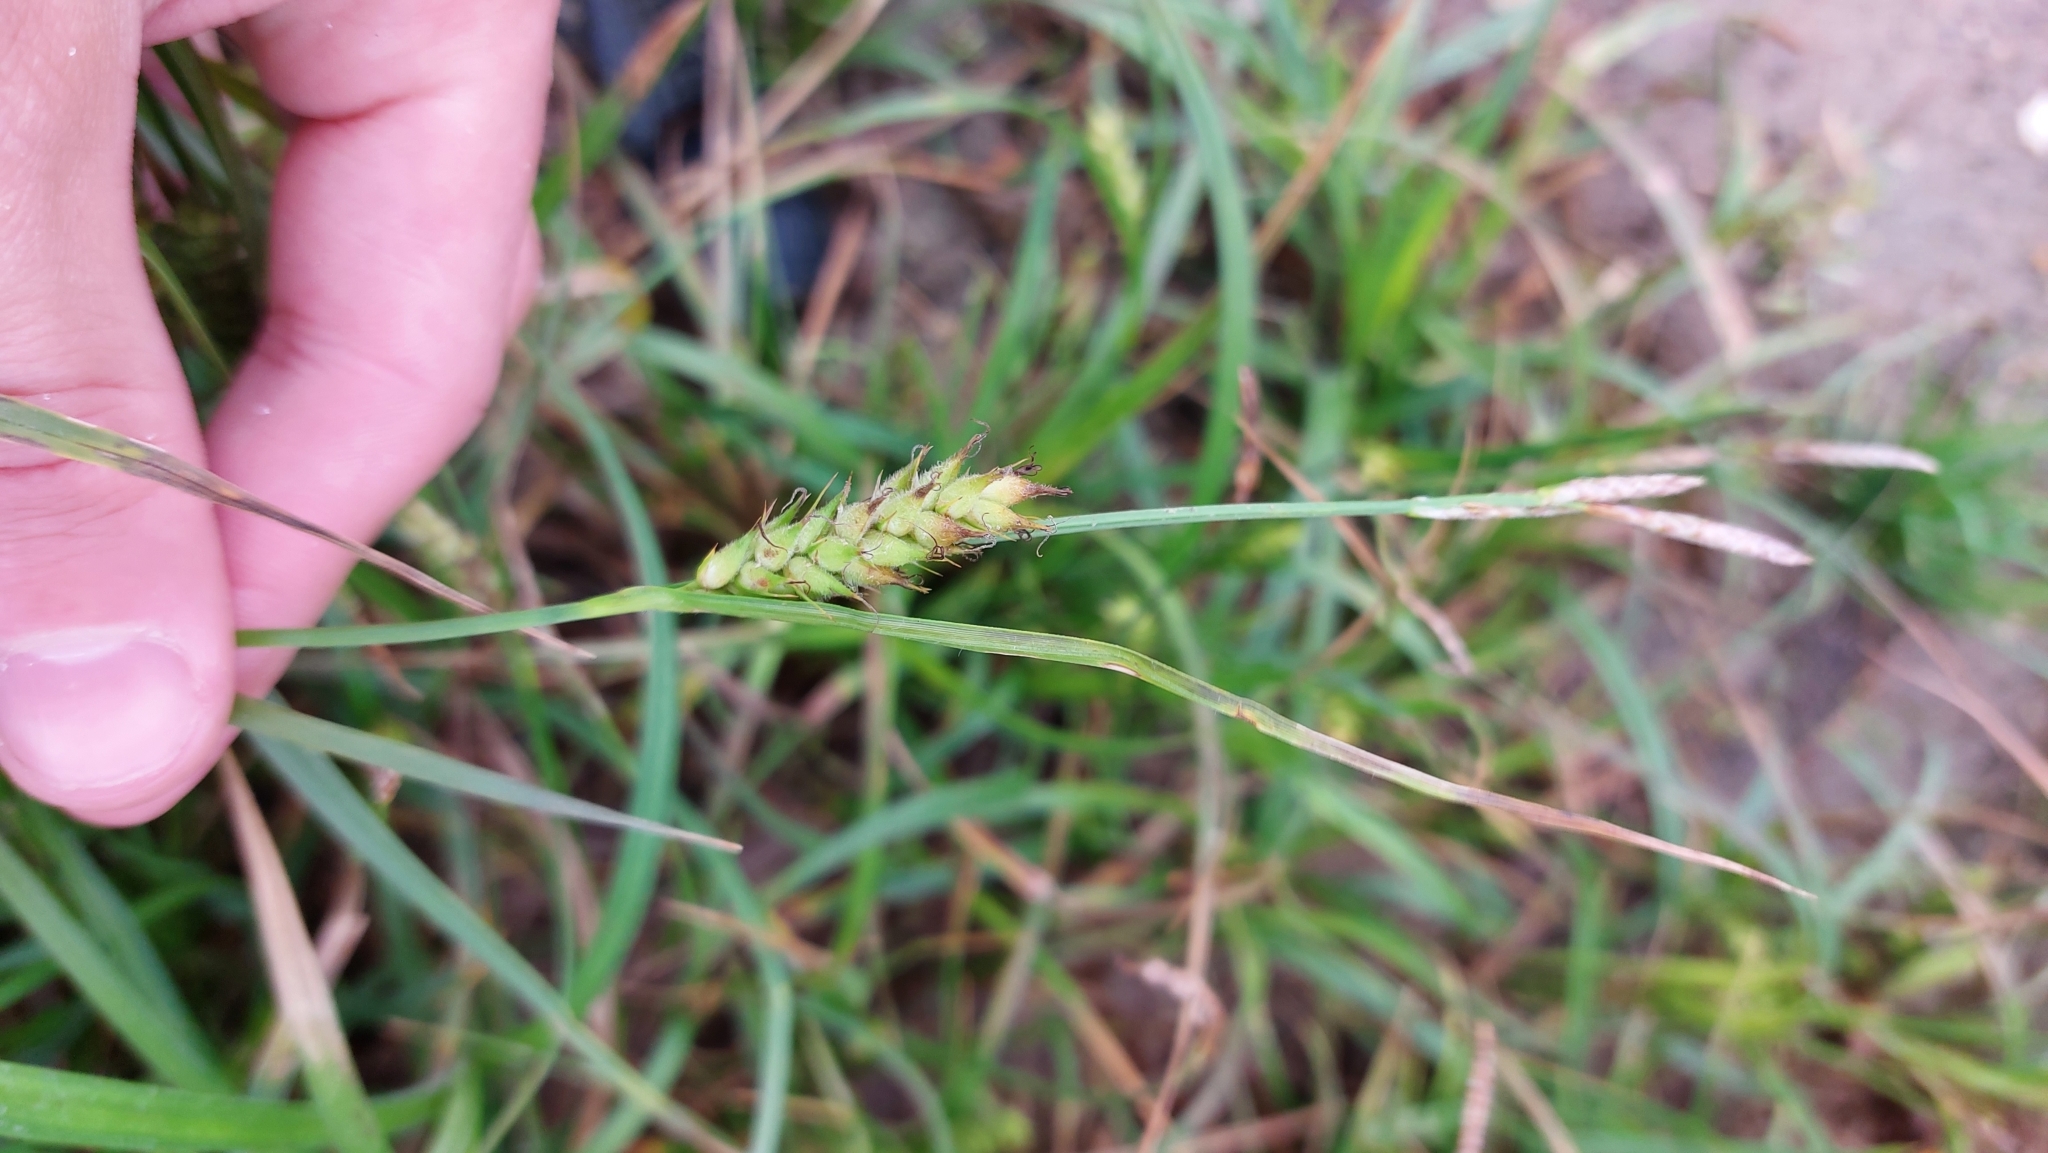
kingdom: Plantae
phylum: Tracheophyta
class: Liliopsida
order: Poales
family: Cyperaceae
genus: Carex
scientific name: Carex hirta
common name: Hairy sedge
